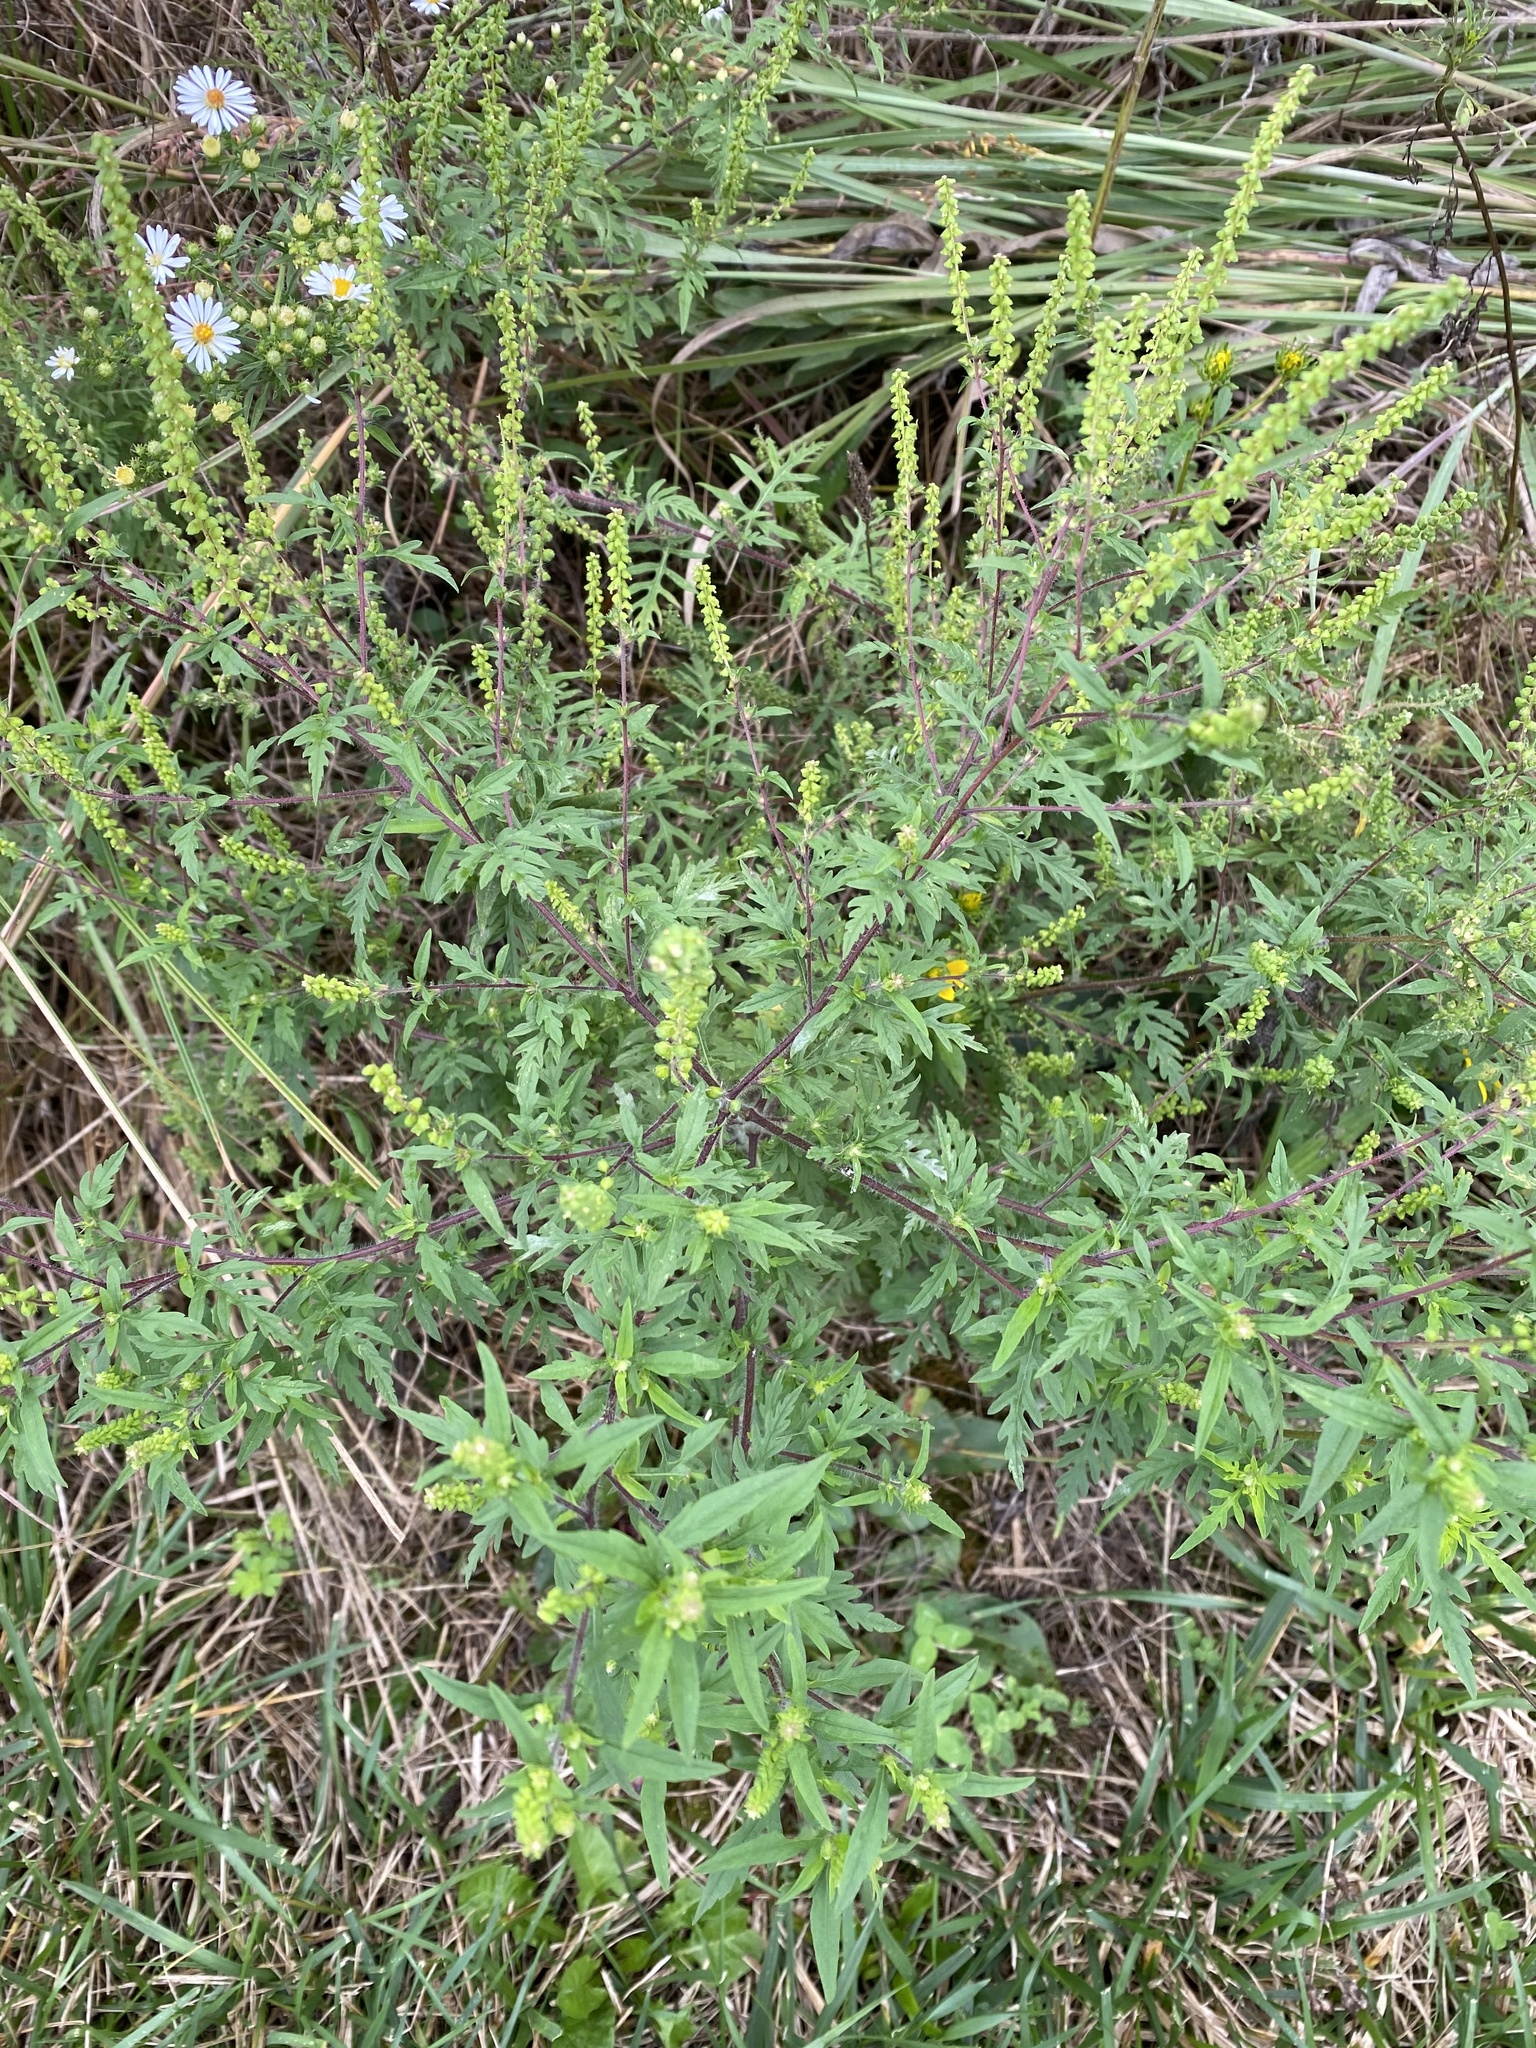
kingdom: Plantae
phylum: Tracheophyta
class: Magnoliopsida
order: Asterales
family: Asteraceae
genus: Ambrosia
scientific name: Ambrosia artemisiifolia
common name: Annual ragweed
